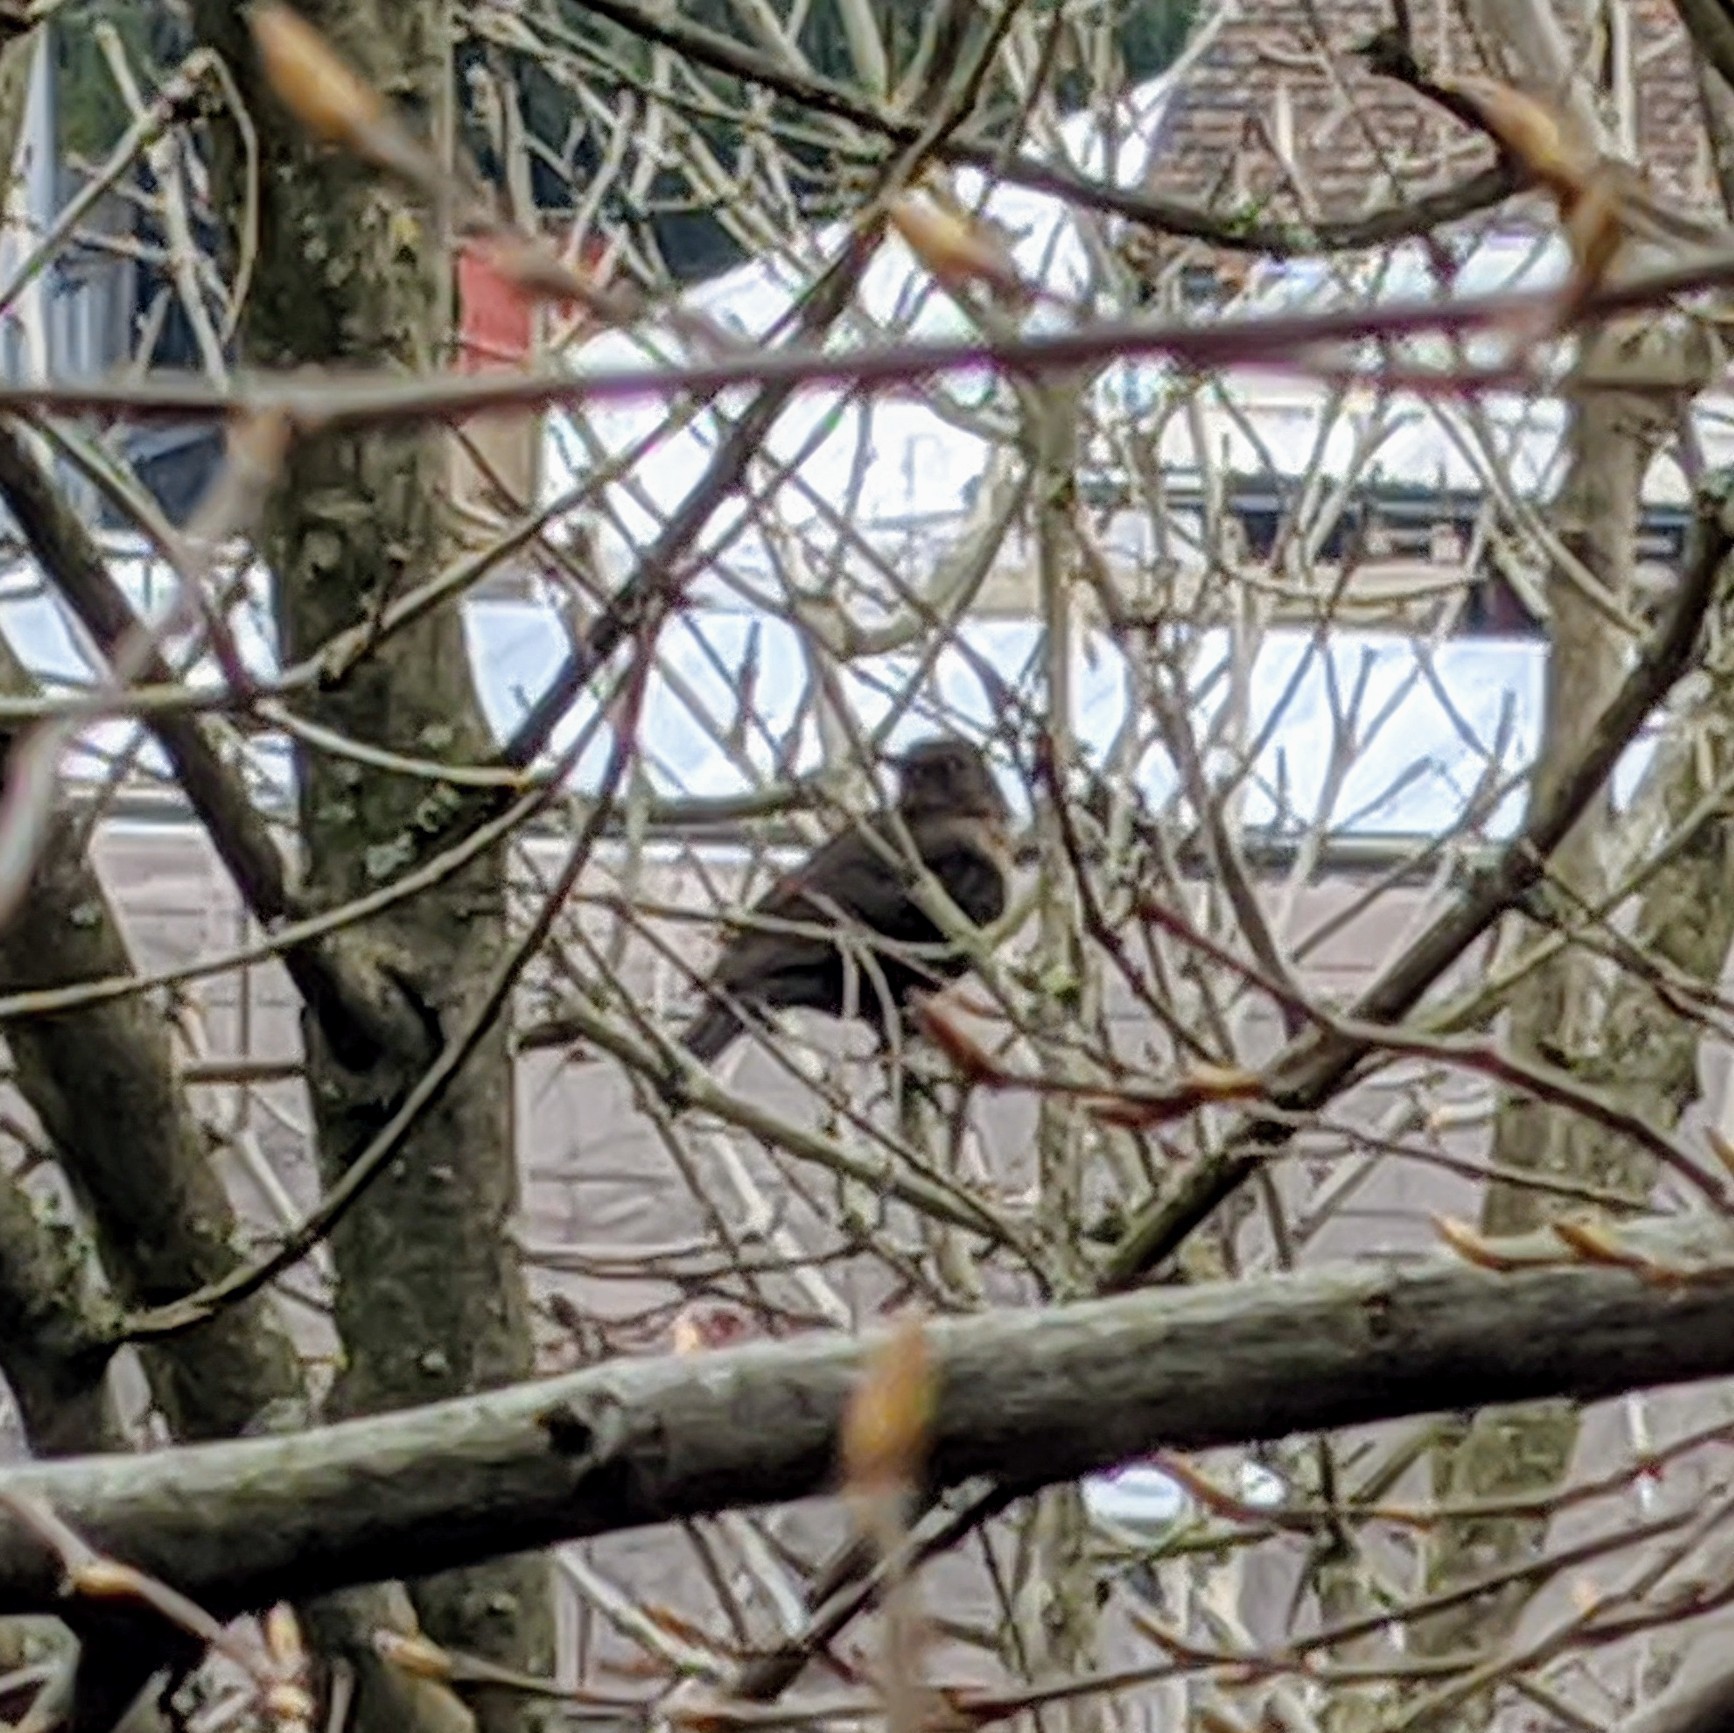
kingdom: Animalia
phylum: Chordata
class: Aves
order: Passeriformes
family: Turdidae
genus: Turdus
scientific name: Turdus merula
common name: Common blackbird
